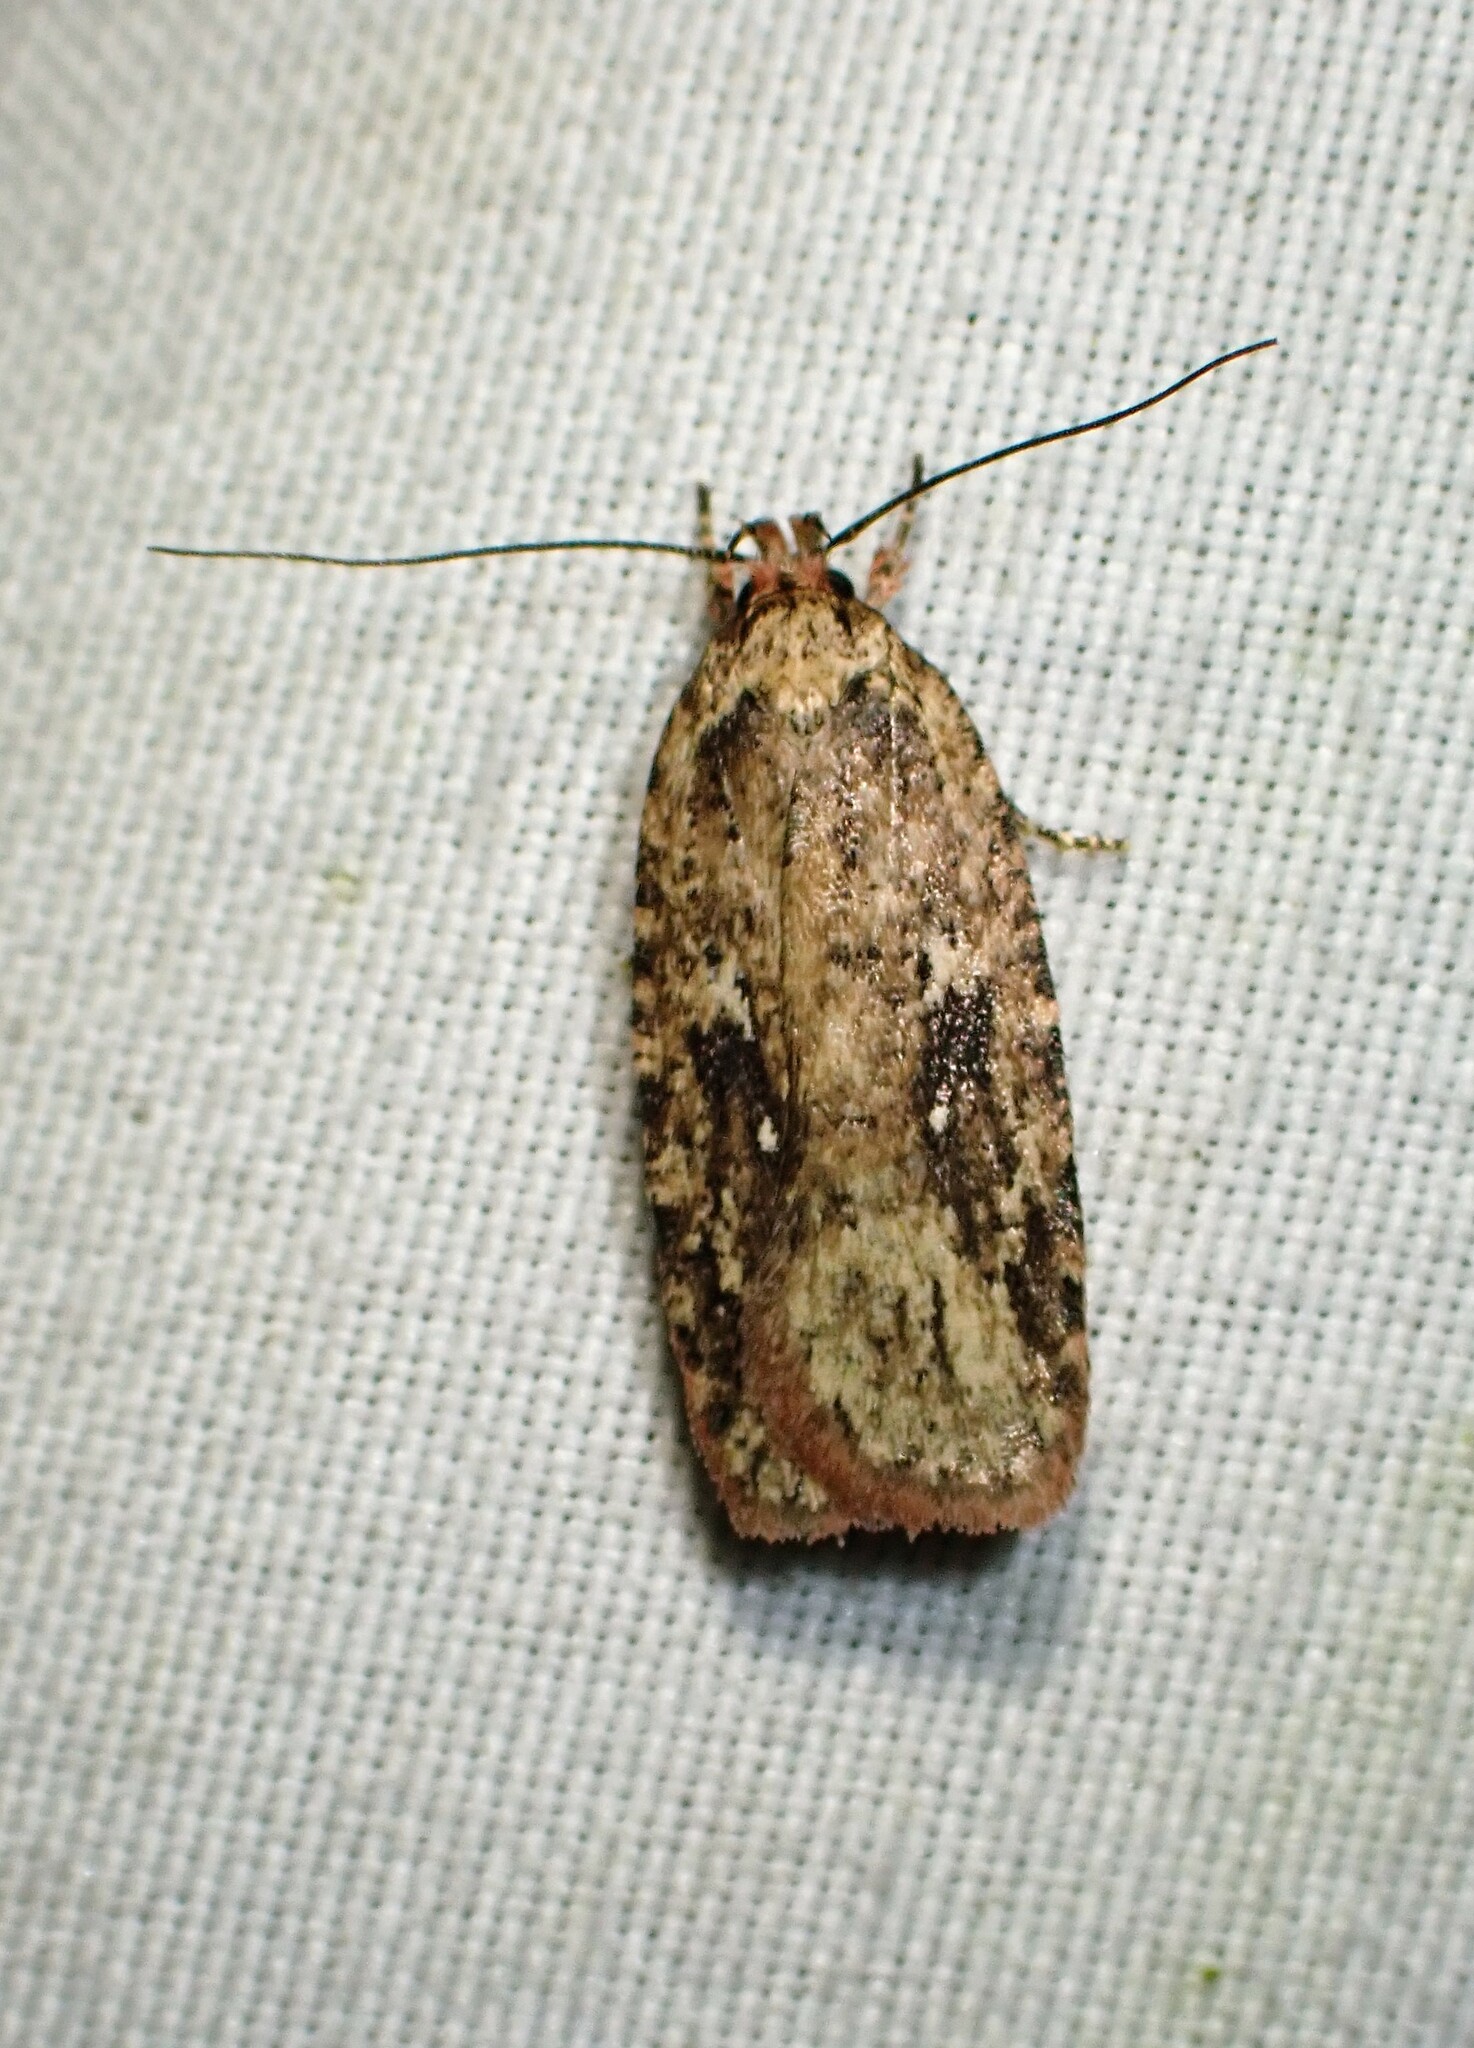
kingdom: Animalia
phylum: Arthropoda
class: Insecta
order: Lepidoptera
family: Depressariidae
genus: Agonopterix
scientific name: Agonopterix pulvipennella
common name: Goldenrod leafffolder
